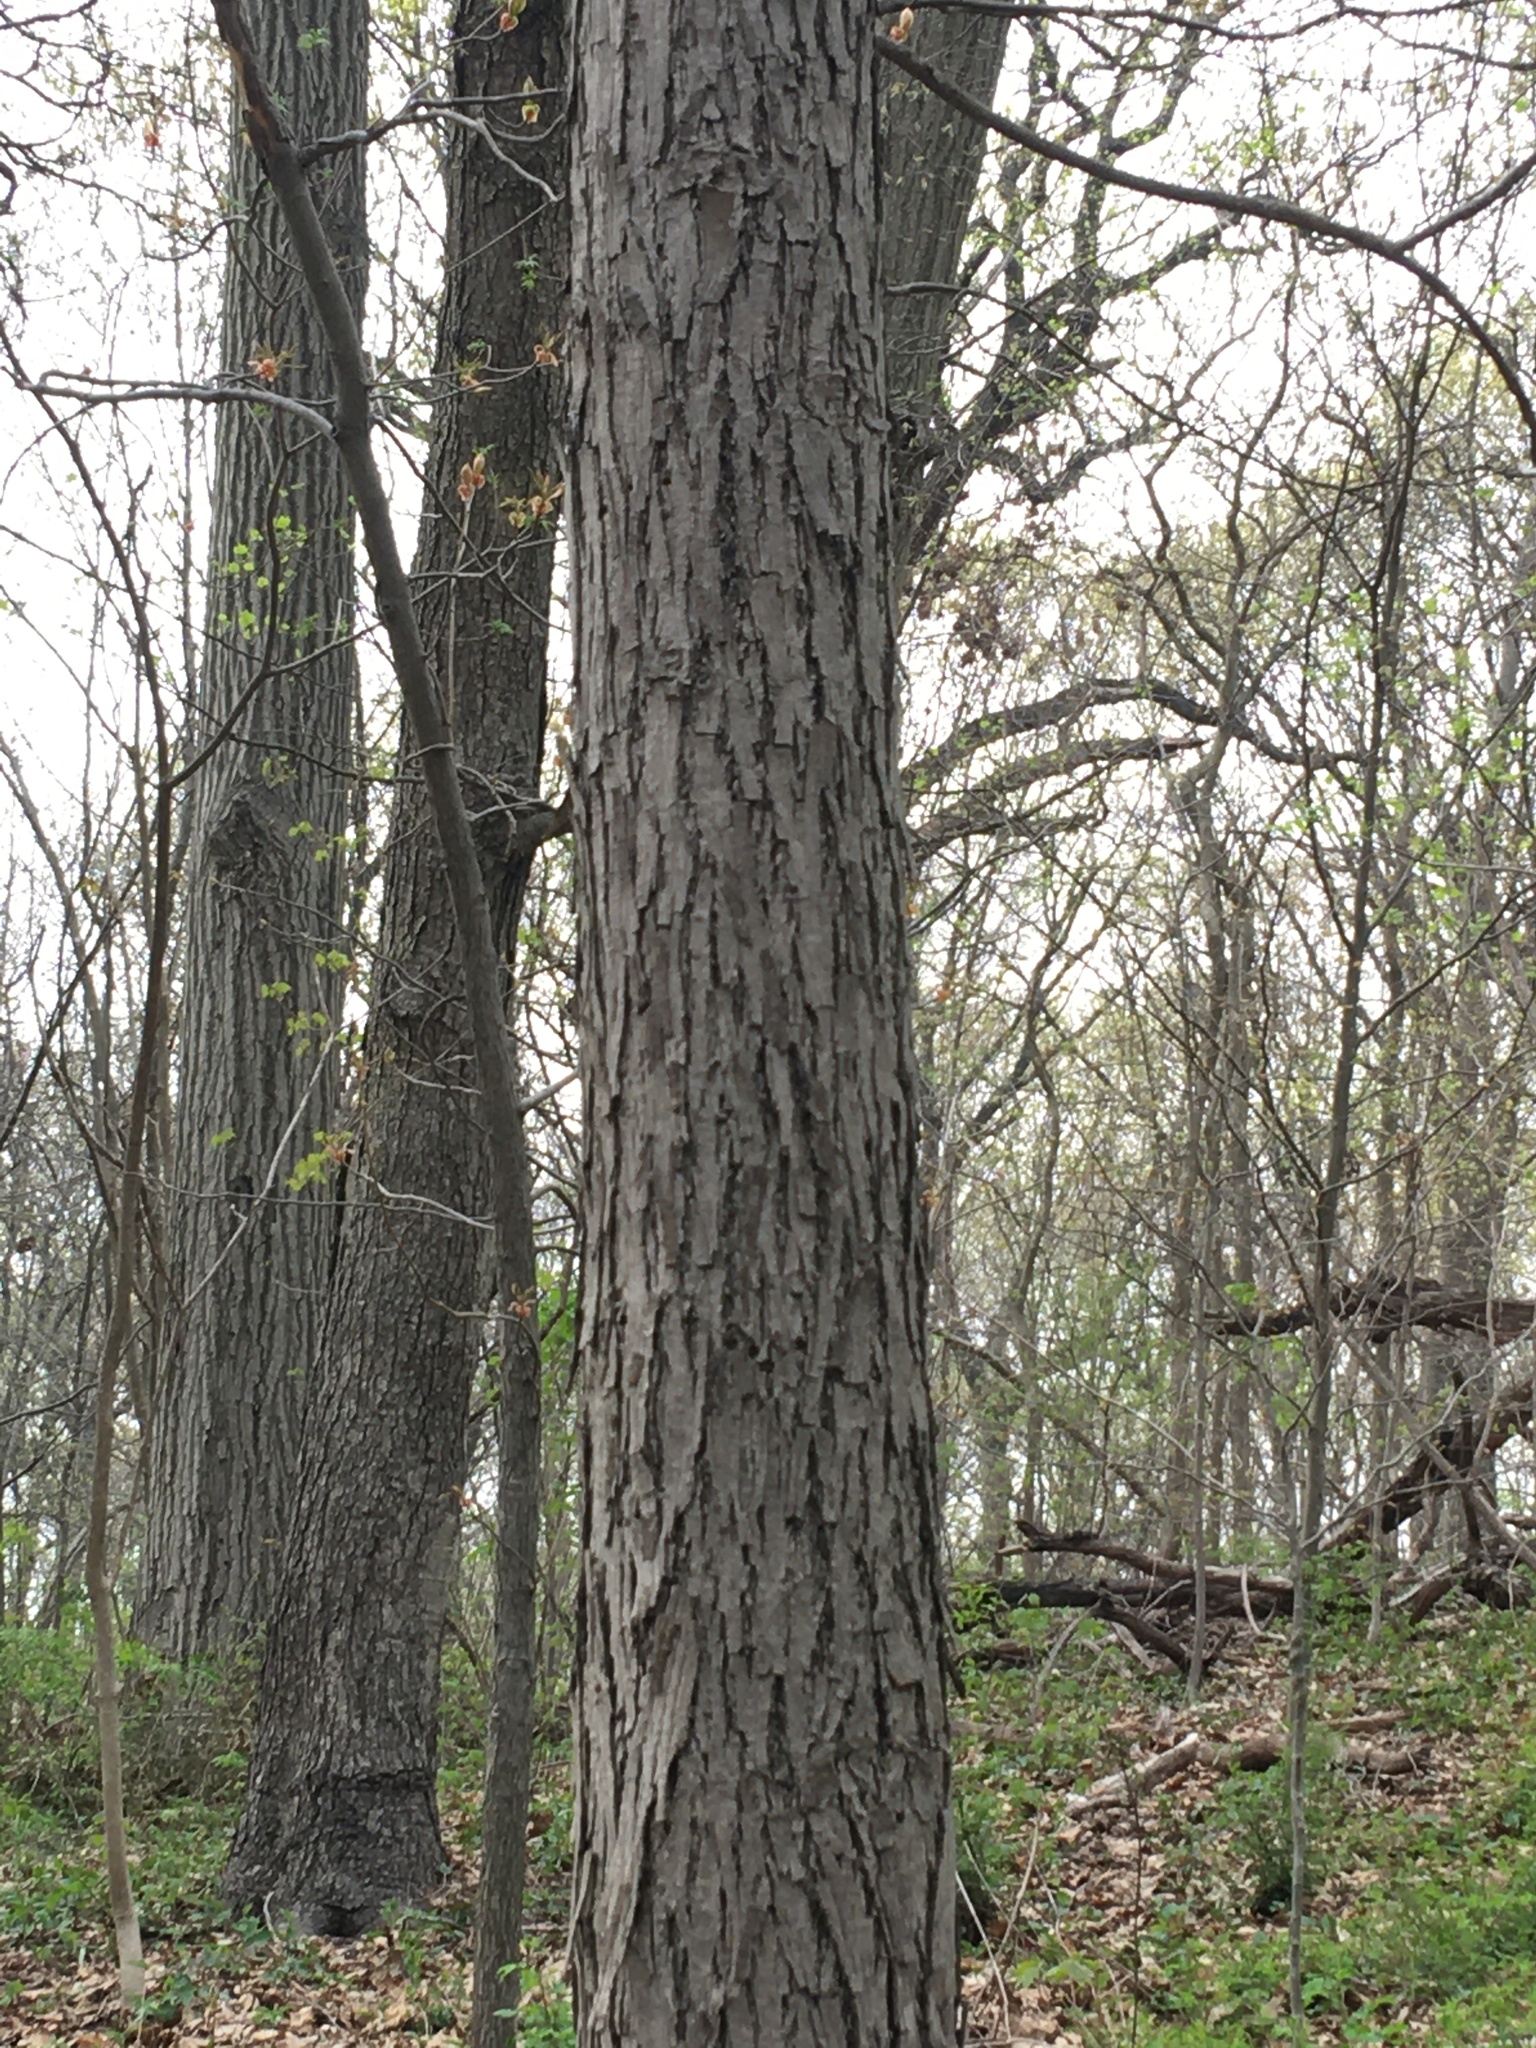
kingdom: Plantae
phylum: Tracheophyta
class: Magnoliopsida
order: Fagales
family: Juglandaceae
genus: Carya
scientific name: Carya ovata
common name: Shagbark hickory
